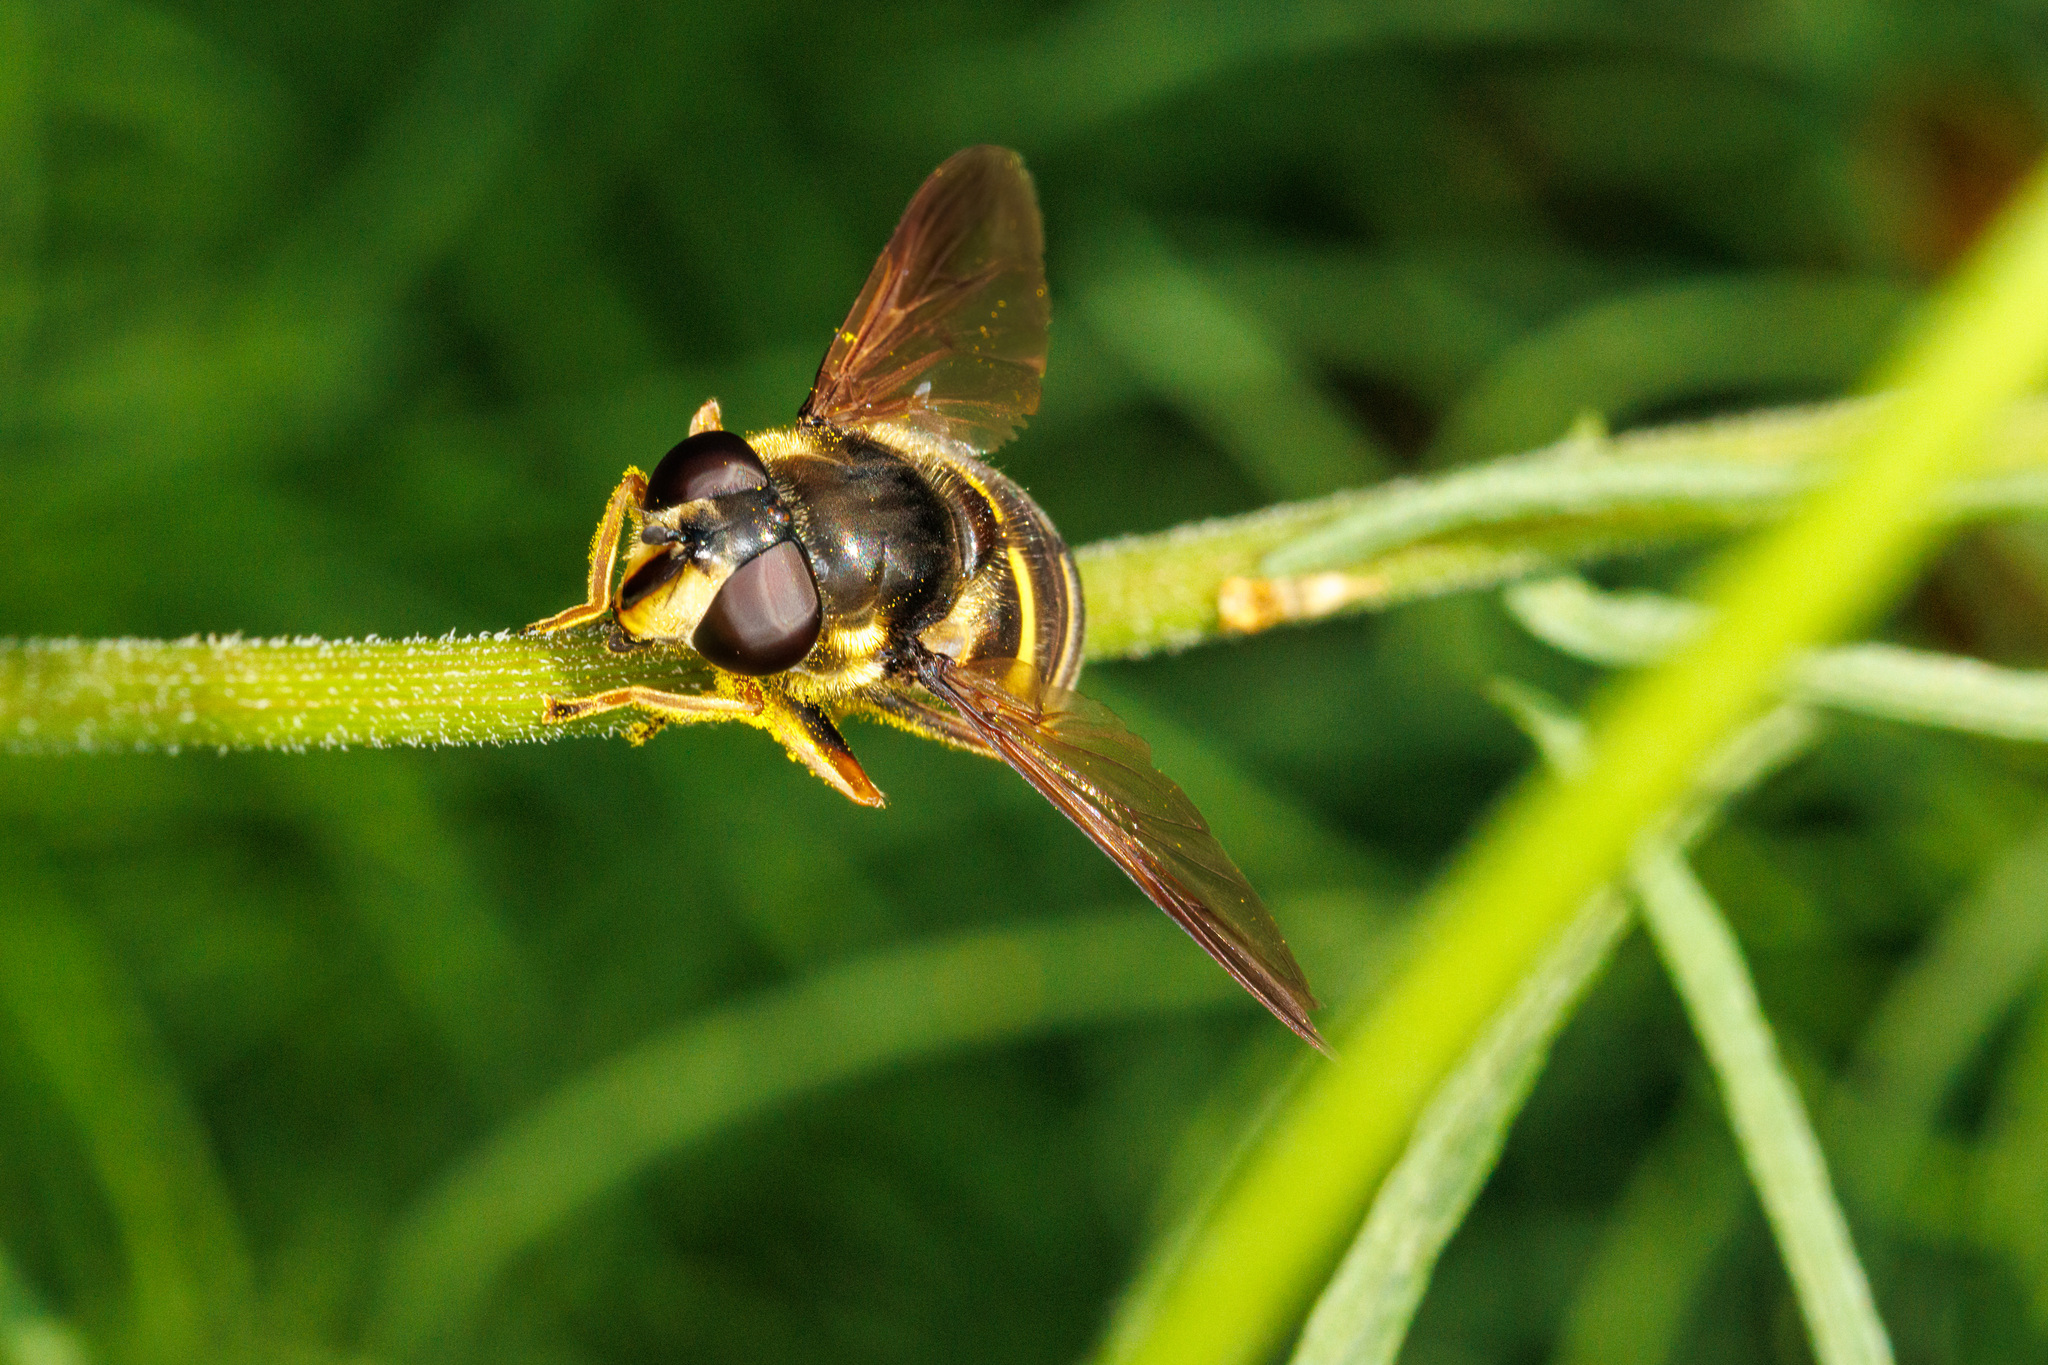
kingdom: Animalia
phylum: Arthropoda
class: Insecta
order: Diptera
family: Syrphidae
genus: Sericomyia
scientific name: Sericomyia chalcopyga
